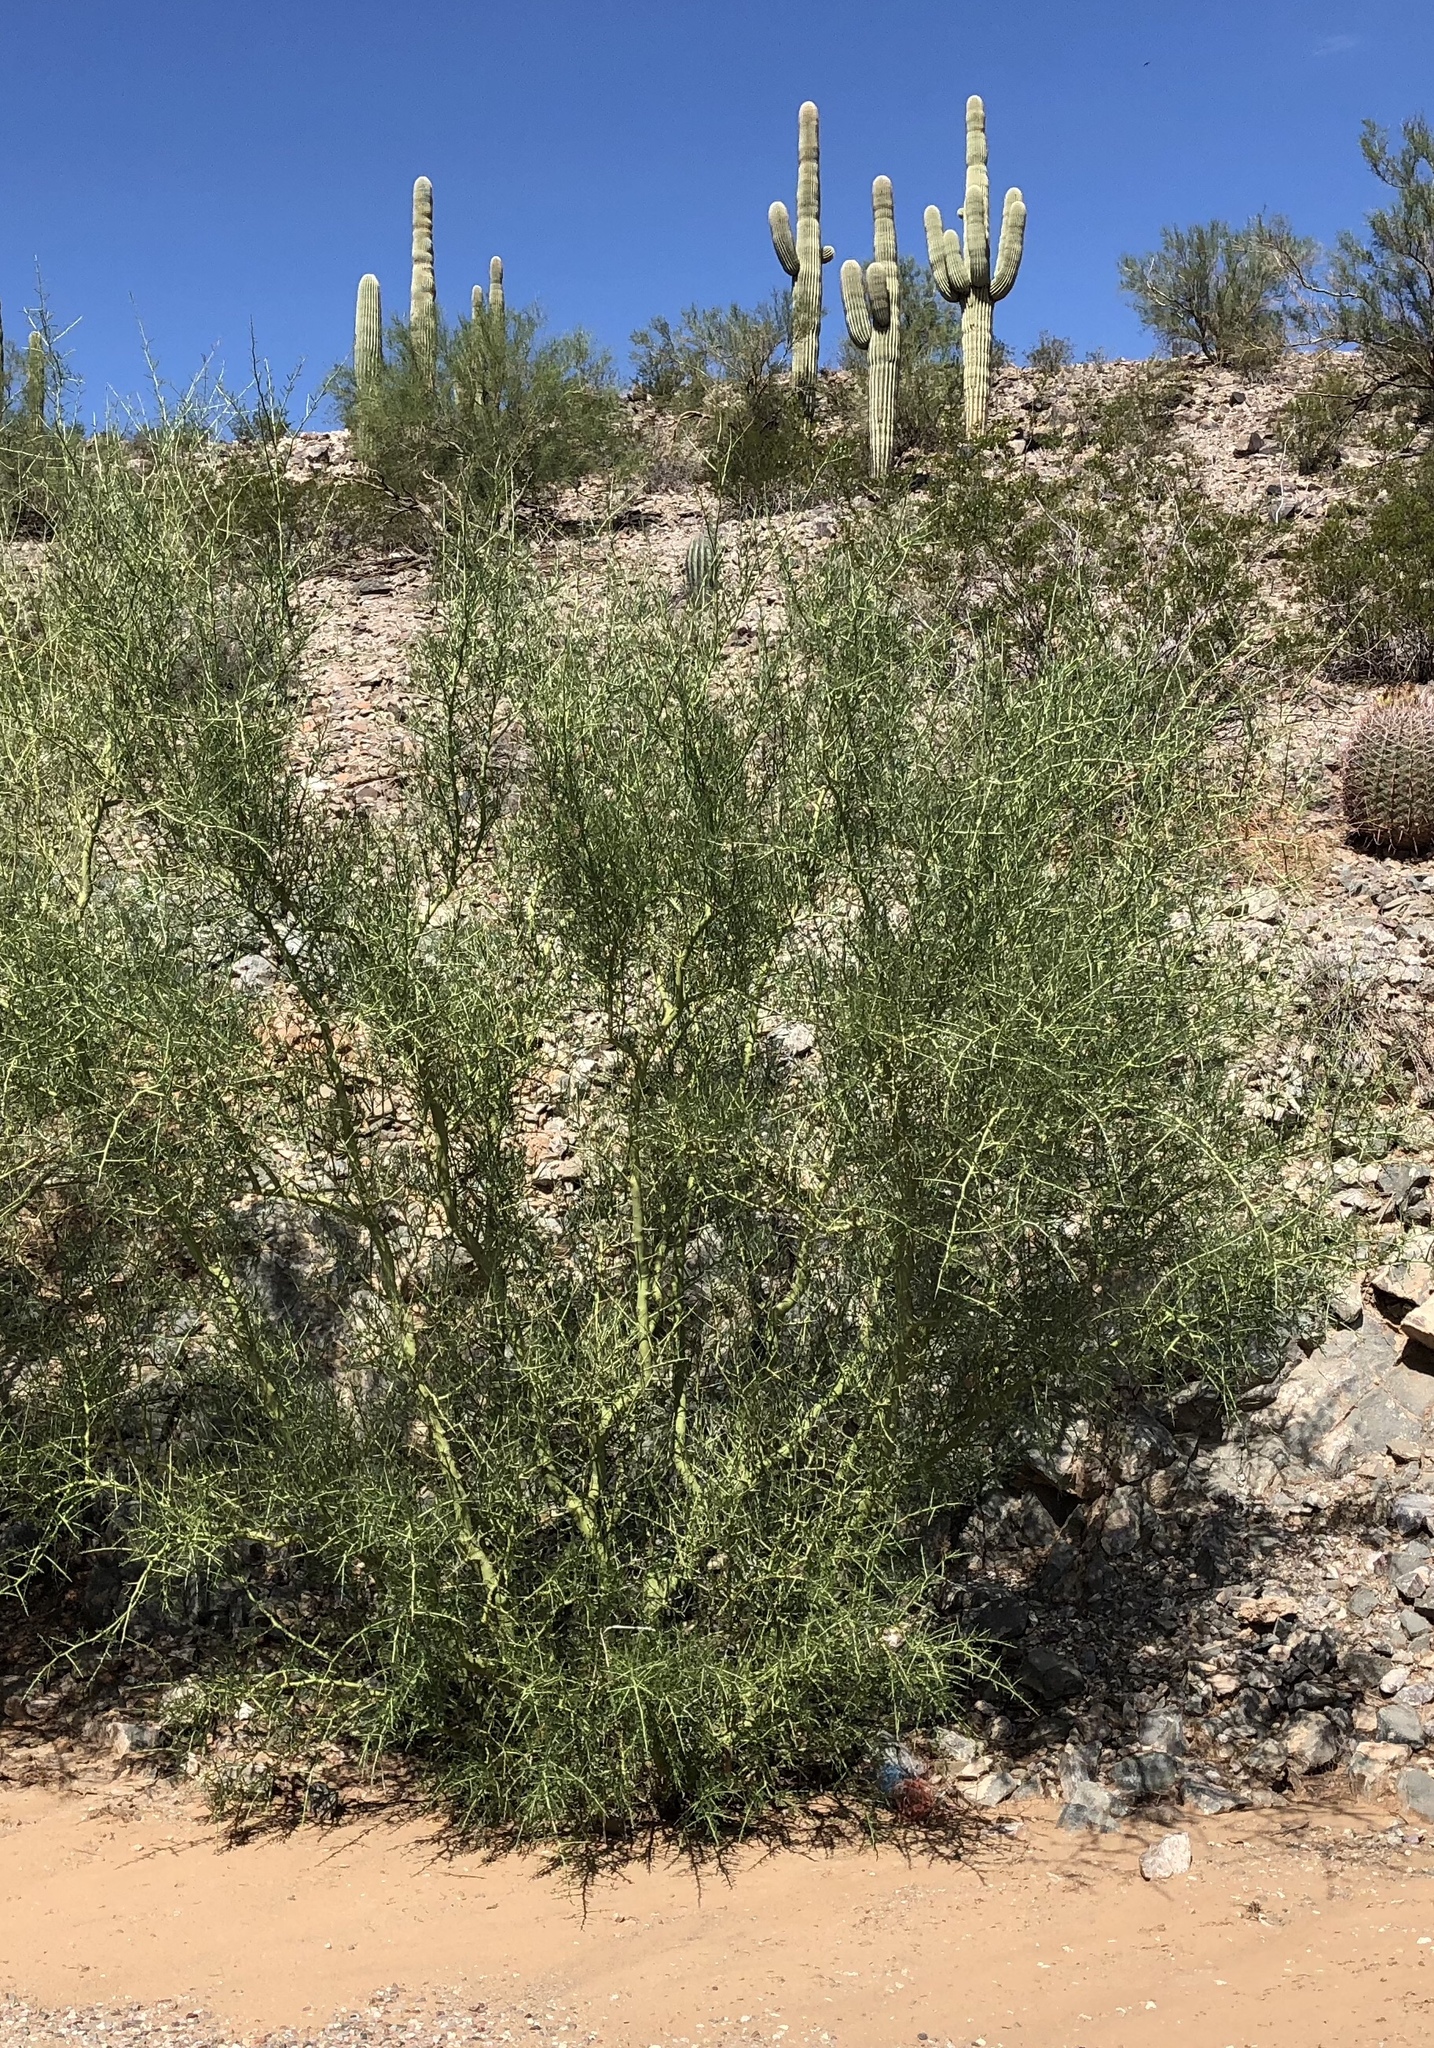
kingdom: Plantae
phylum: Tracheophyta
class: Magnoliopsida
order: Fabales
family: Fabaceae
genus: Parkinsonia
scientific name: Parkinsonia microphylla
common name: Yellow paloverde
